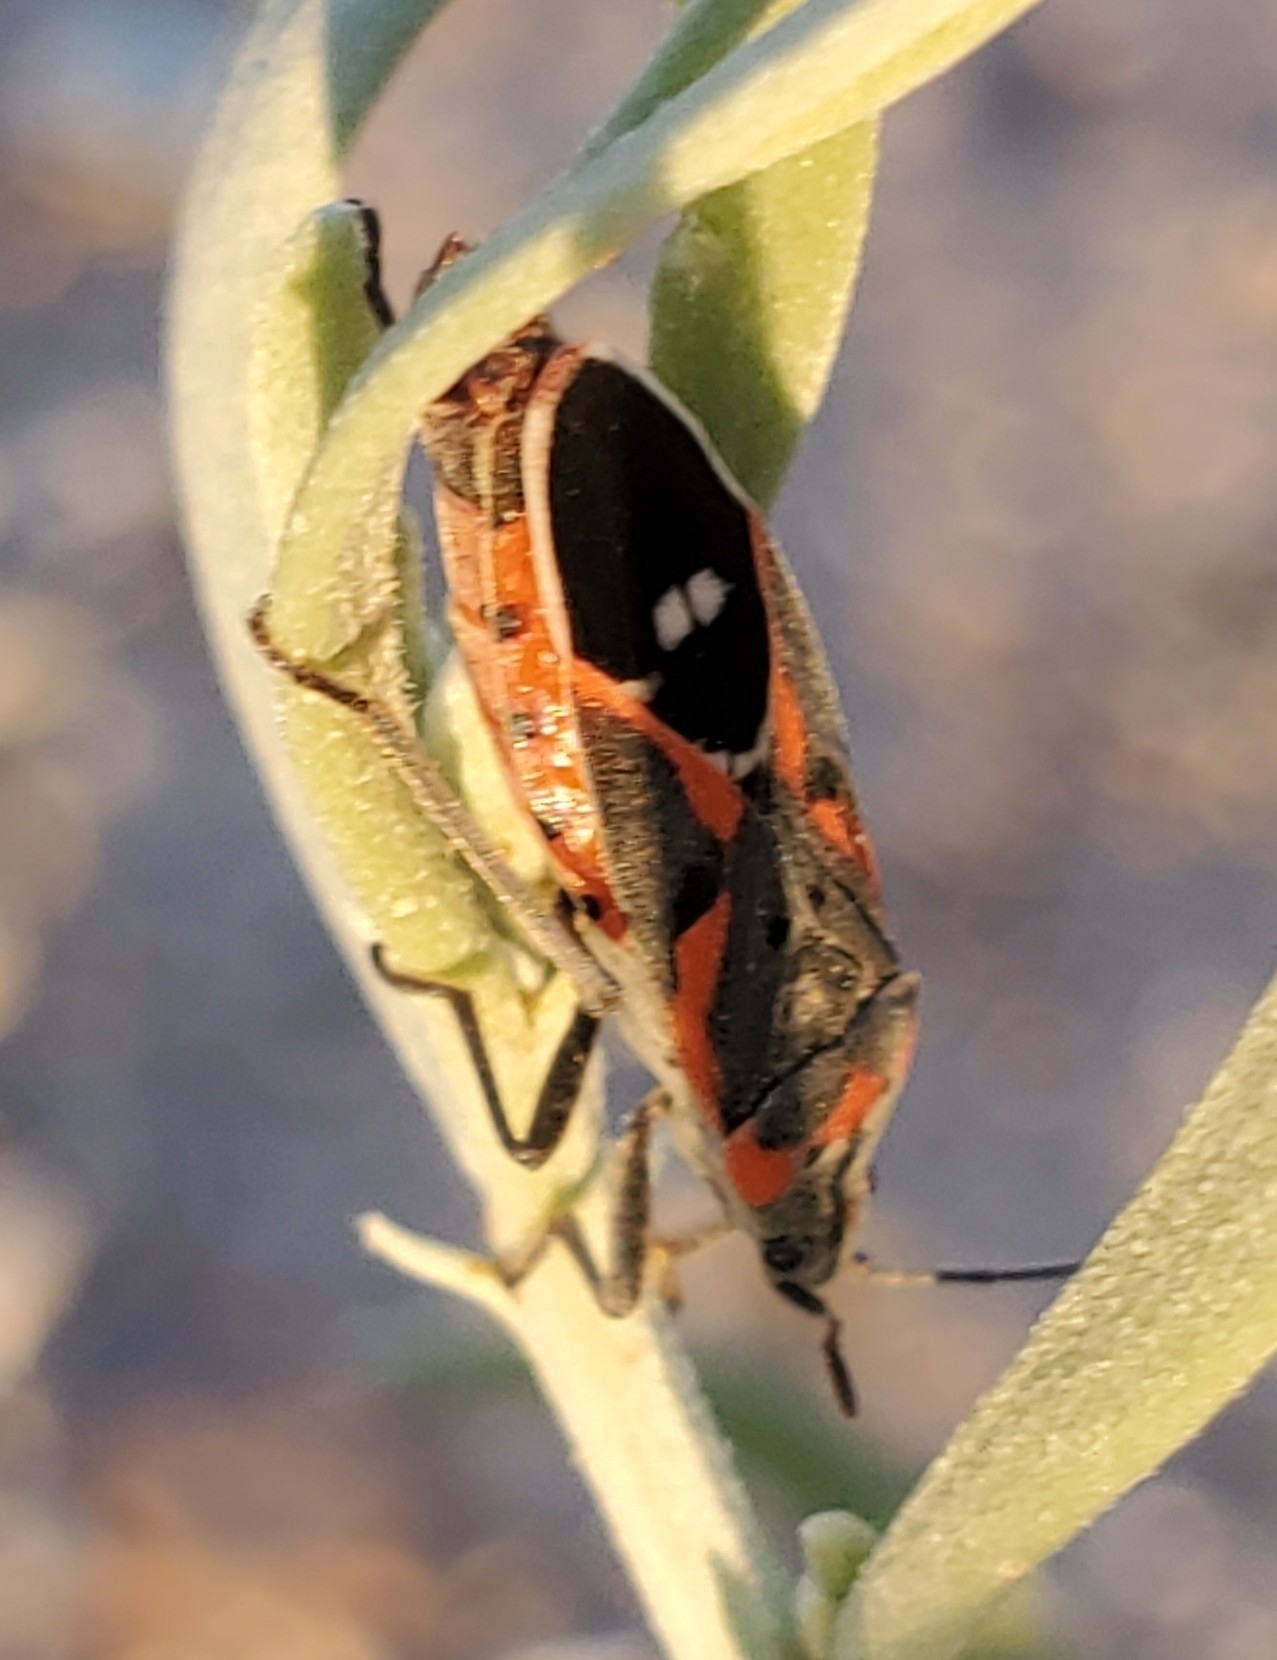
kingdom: Animalia
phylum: Arthropoda
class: Insecta
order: Hemiptera
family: Lygaeidae
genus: Lygaeus
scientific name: Lygaeus kalmii
